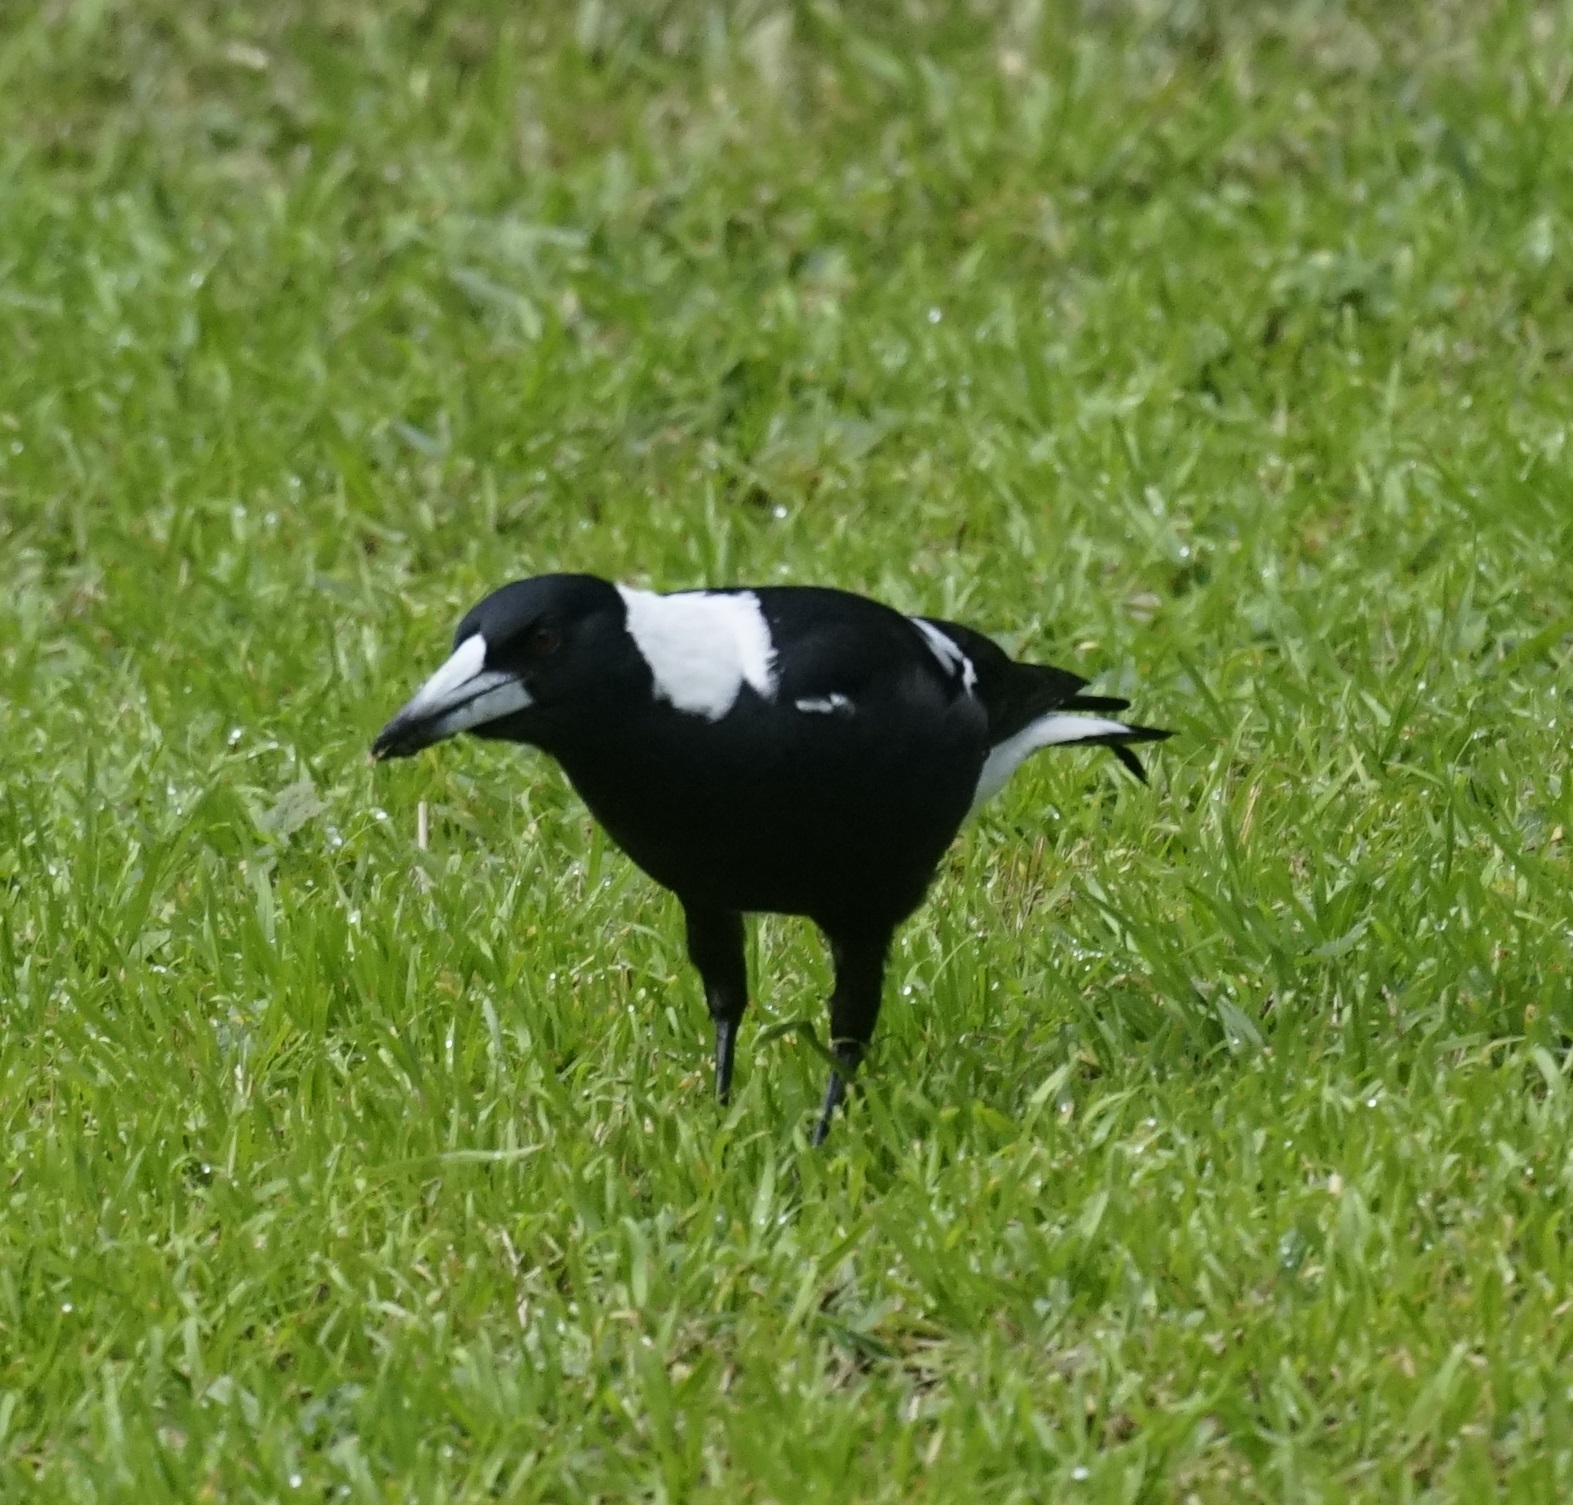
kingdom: Animalia
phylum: Chordata
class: Aves
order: Passeriformes
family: Cracticidae
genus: Gymnorhina
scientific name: Gymnorhina tibicen
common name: Australian magpie
